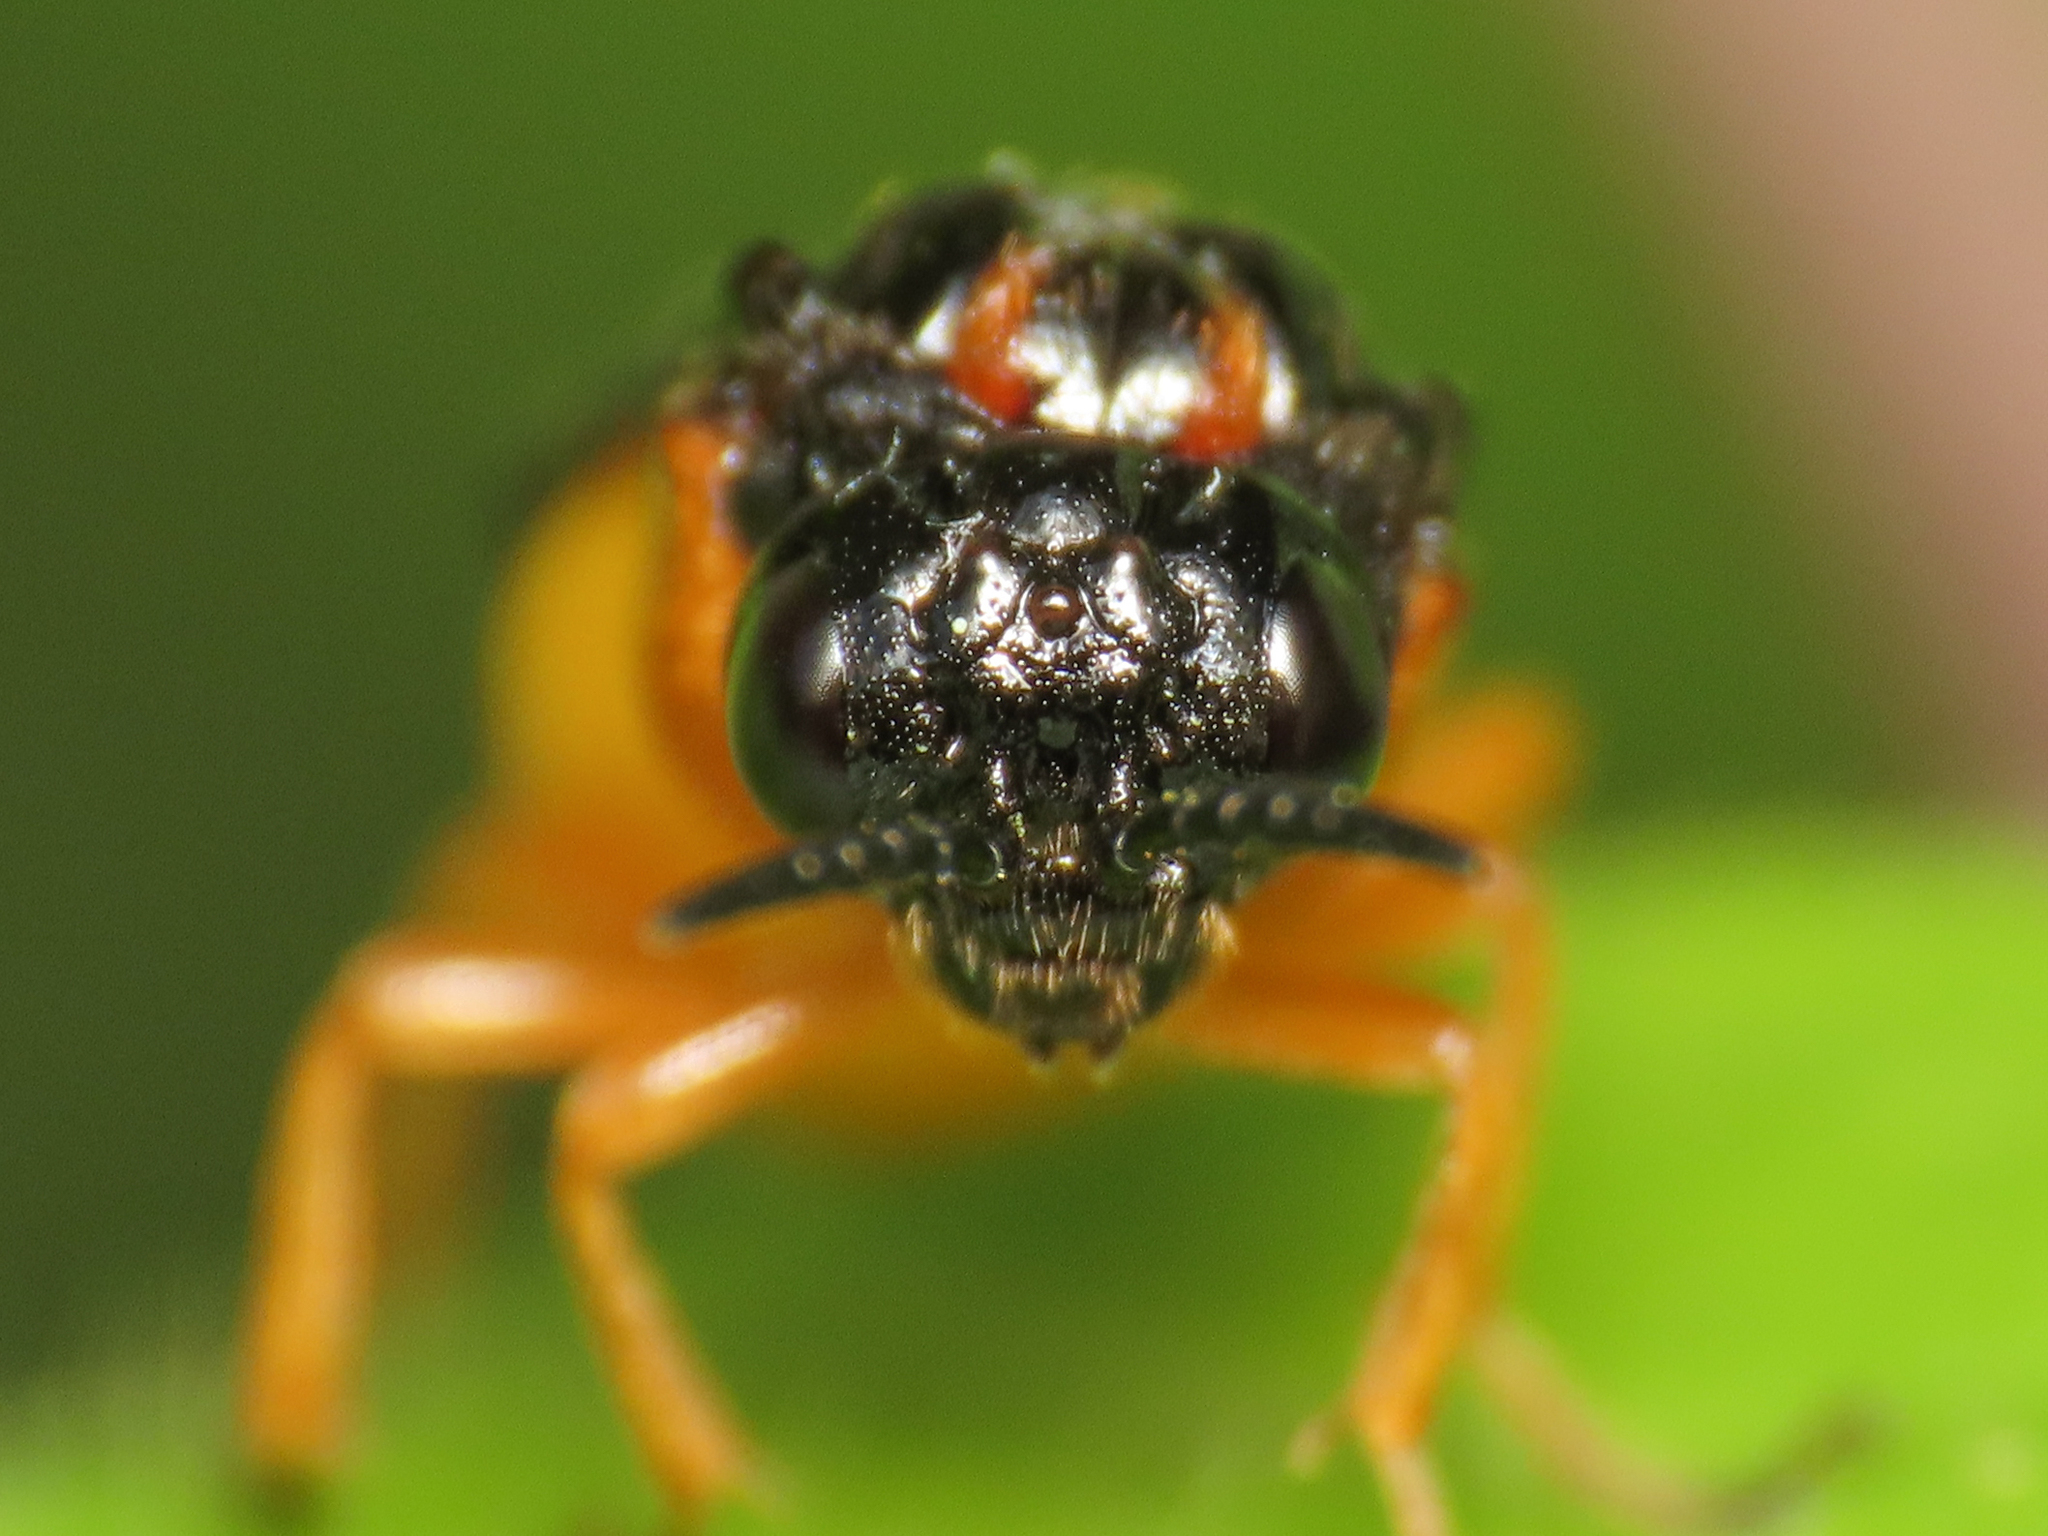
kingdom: Animalia
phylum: Arthropoda
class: Insecta
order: Hymenoptera
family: Tenthredinidae
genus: Monophadnus
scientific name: Monophadnus spinolae
